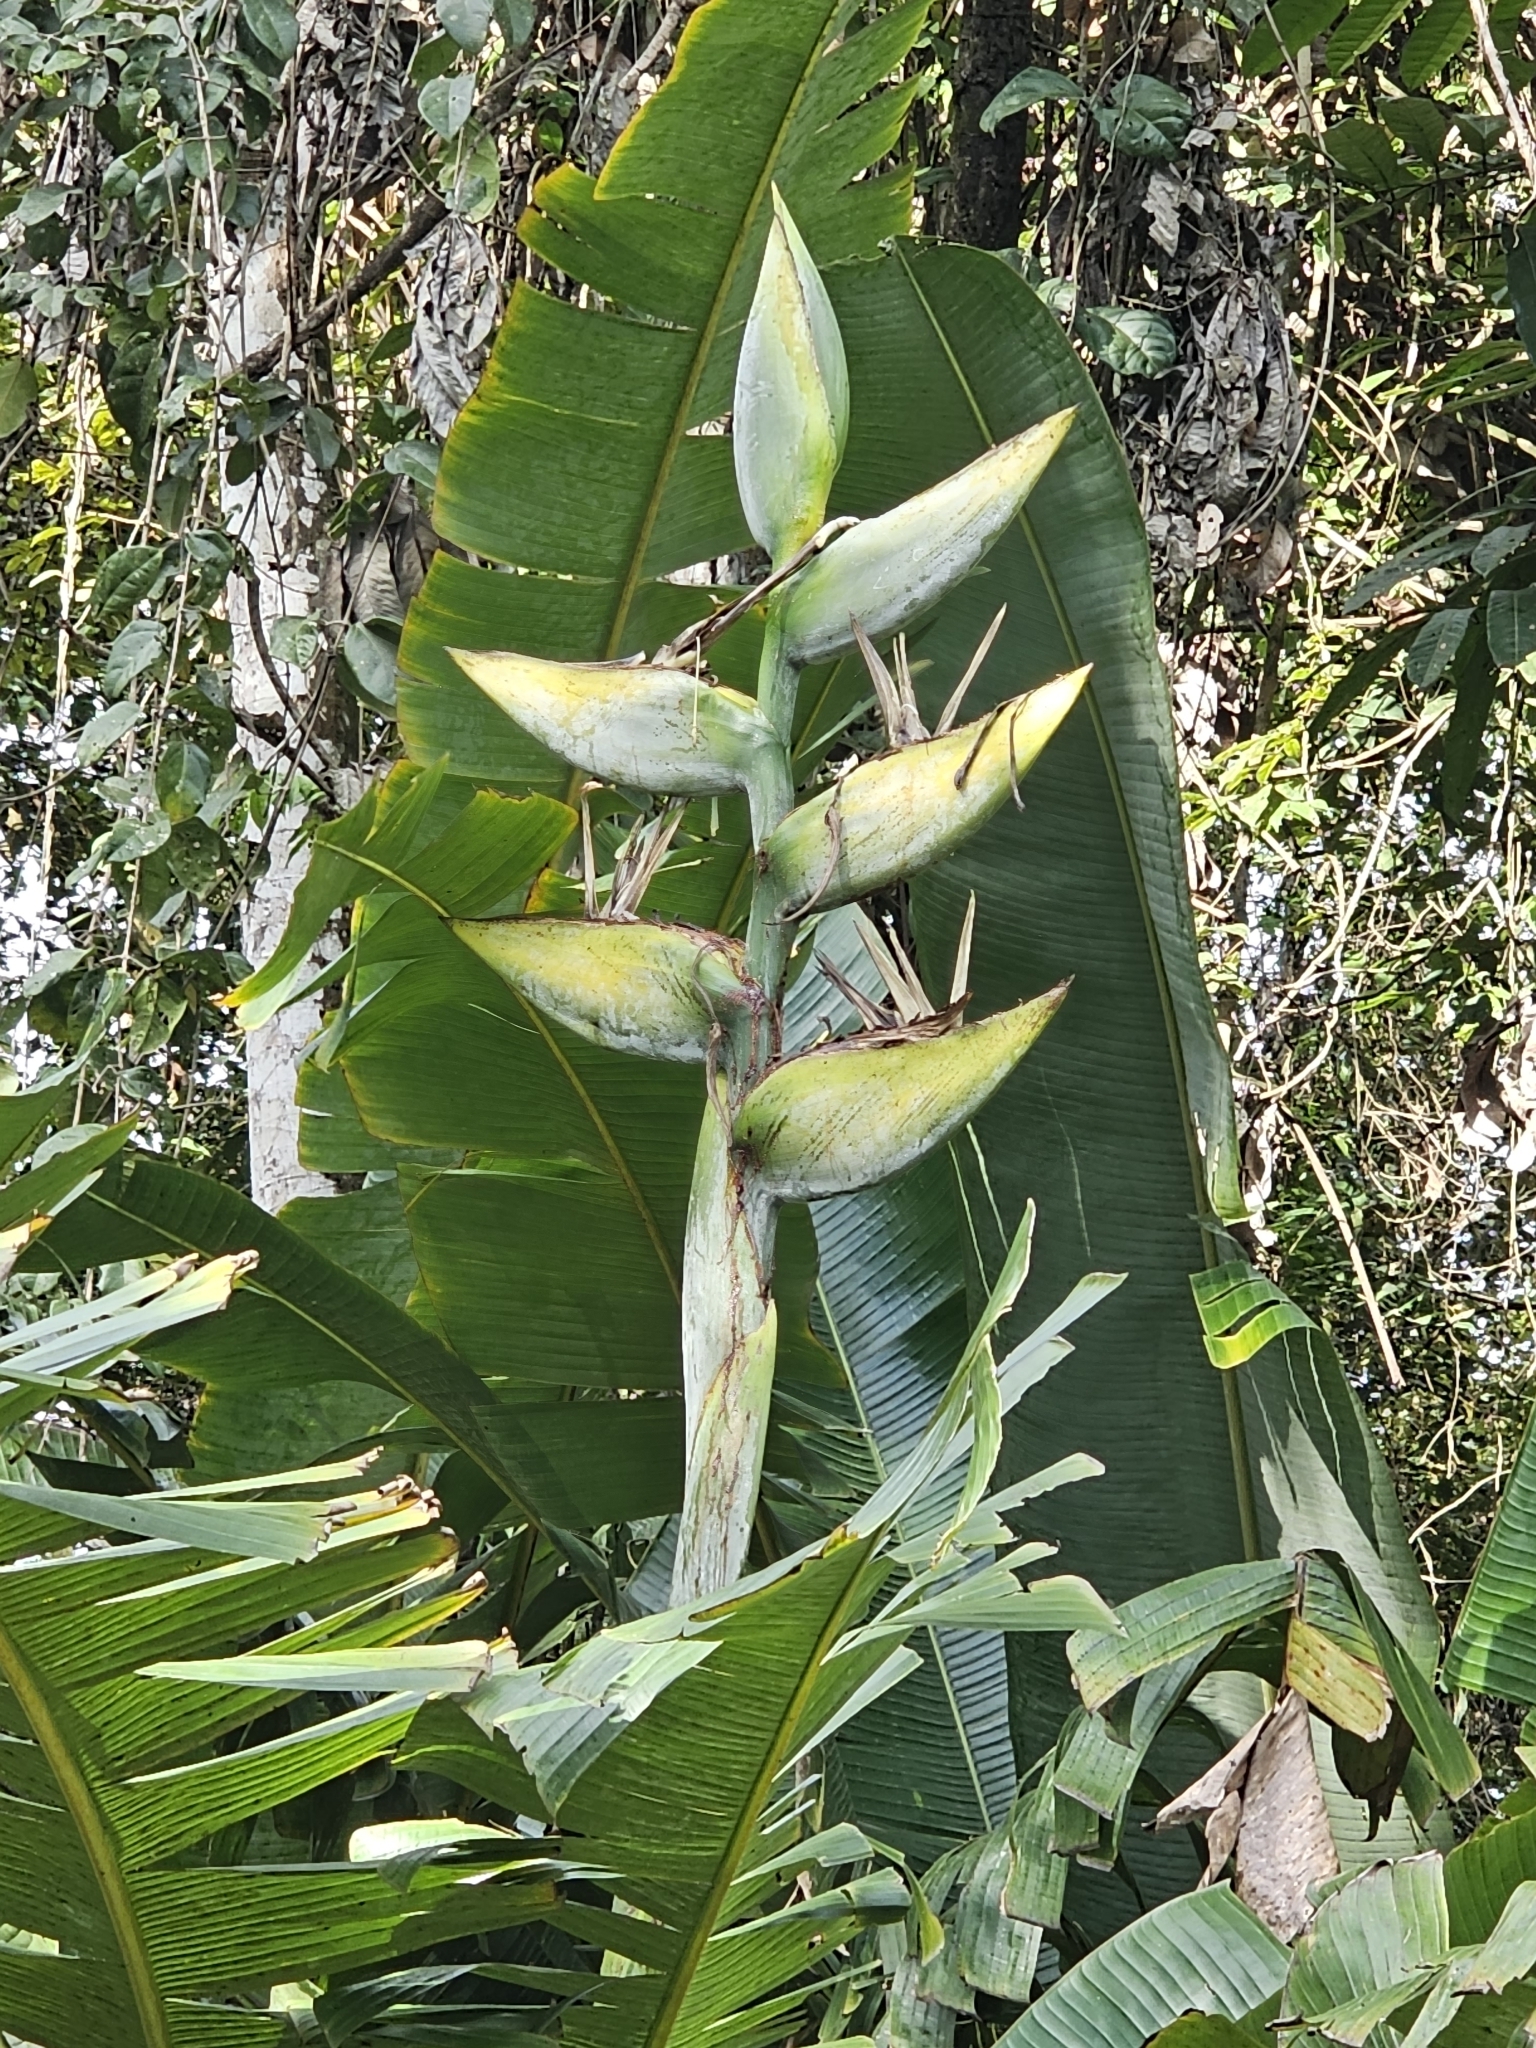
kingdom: Plantae
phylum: Tracheophyta
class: Liliopsida
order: Zingiberales
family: Strelitziaceae
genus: Phenakospermum
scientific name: Phenakospermum guyannense
